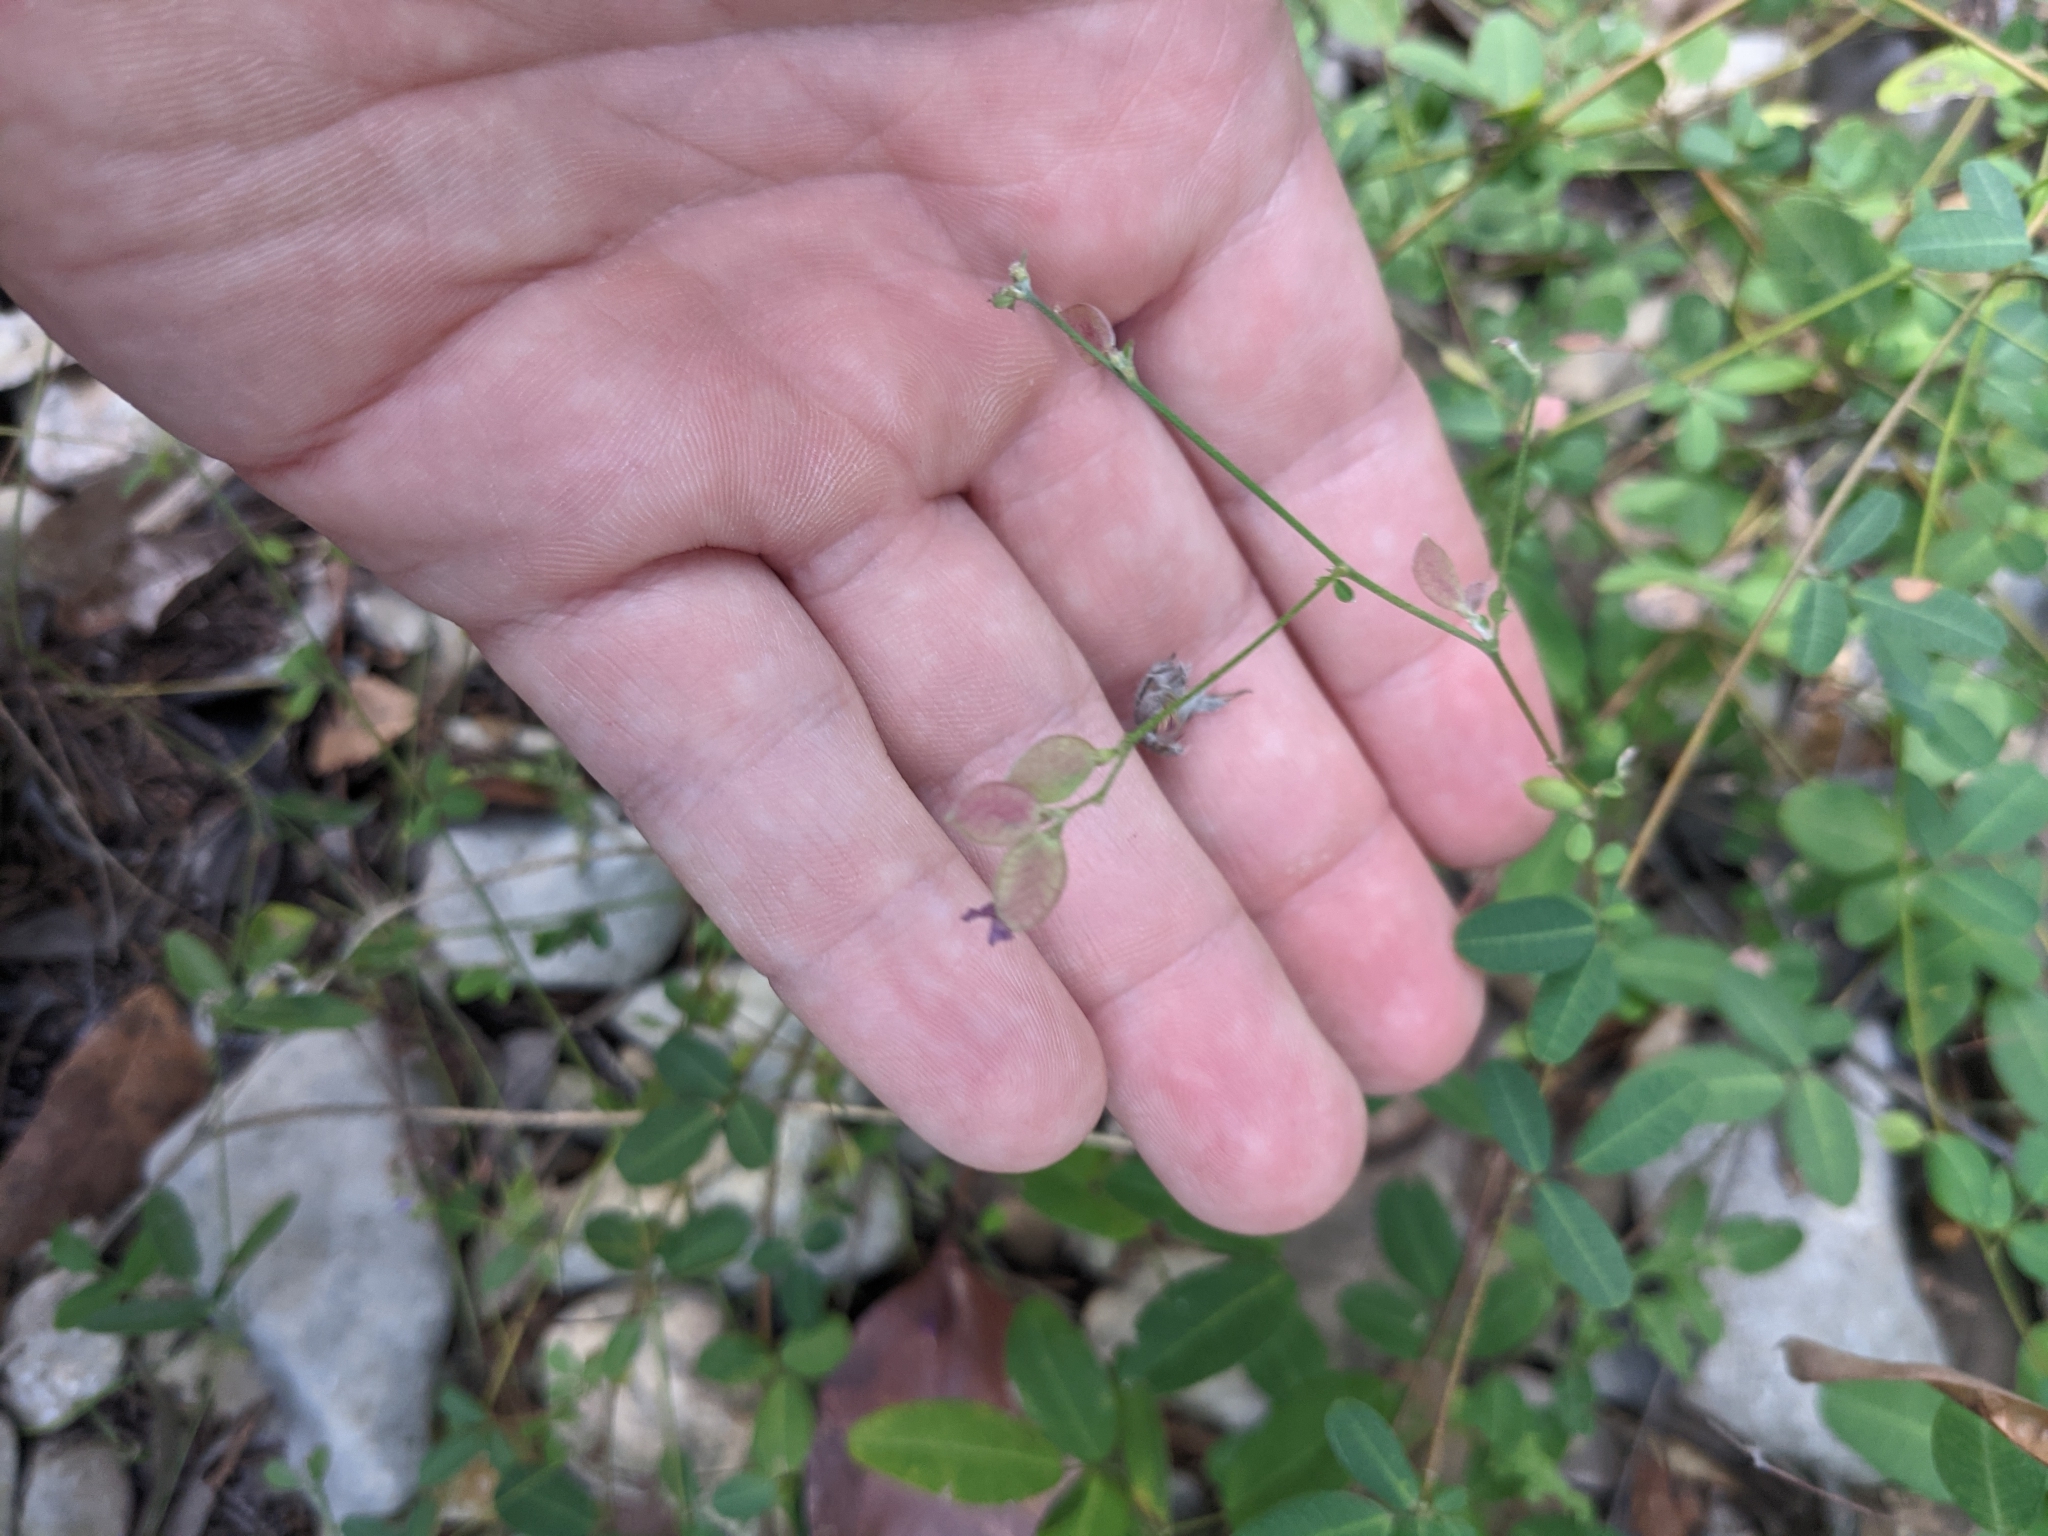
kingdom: Plantae
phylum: Tracheophyta
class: Magnoliopsida
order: Fabales
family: Fabaceae
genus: Lespedeza
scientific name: Lespedeza texana
